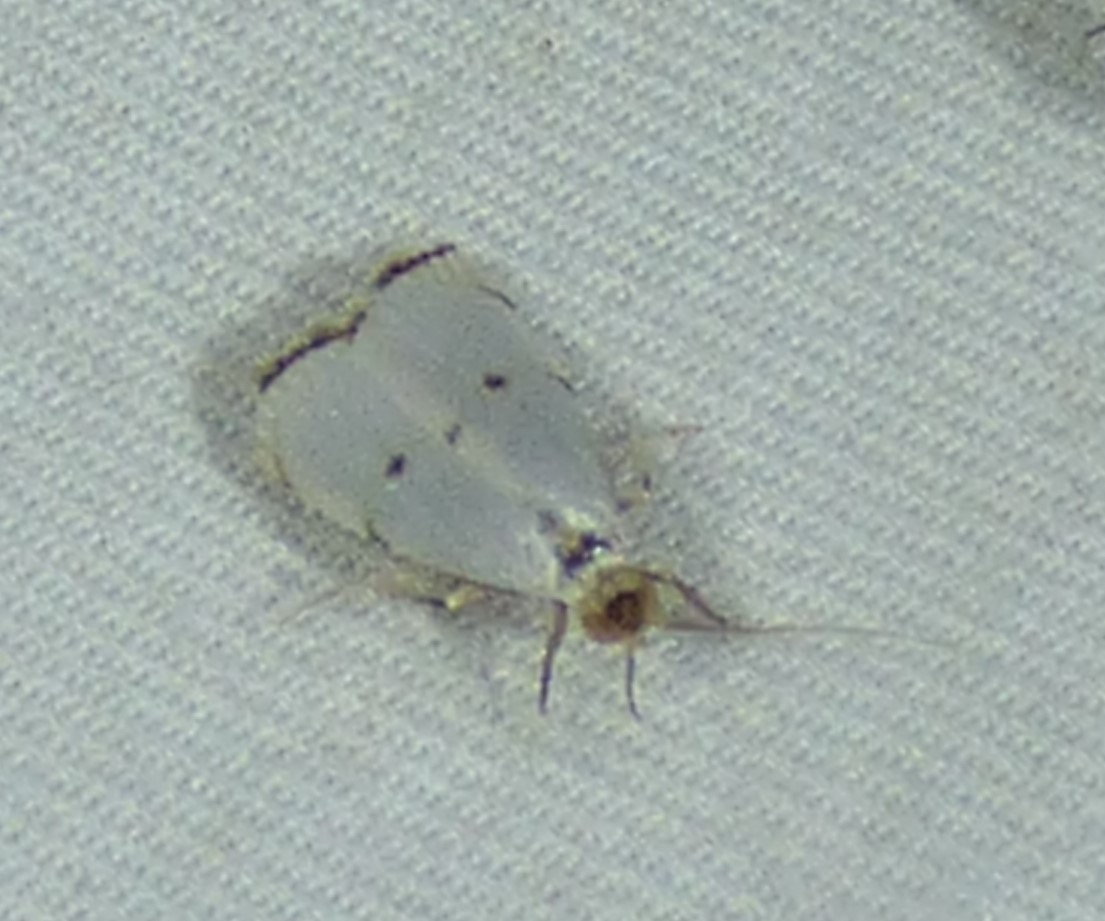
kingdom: Animalia
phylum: Arthropoda
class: Insecta
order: Lepidoptera
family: Crambidae
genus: Argyria
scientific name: Argyria pusillalis
